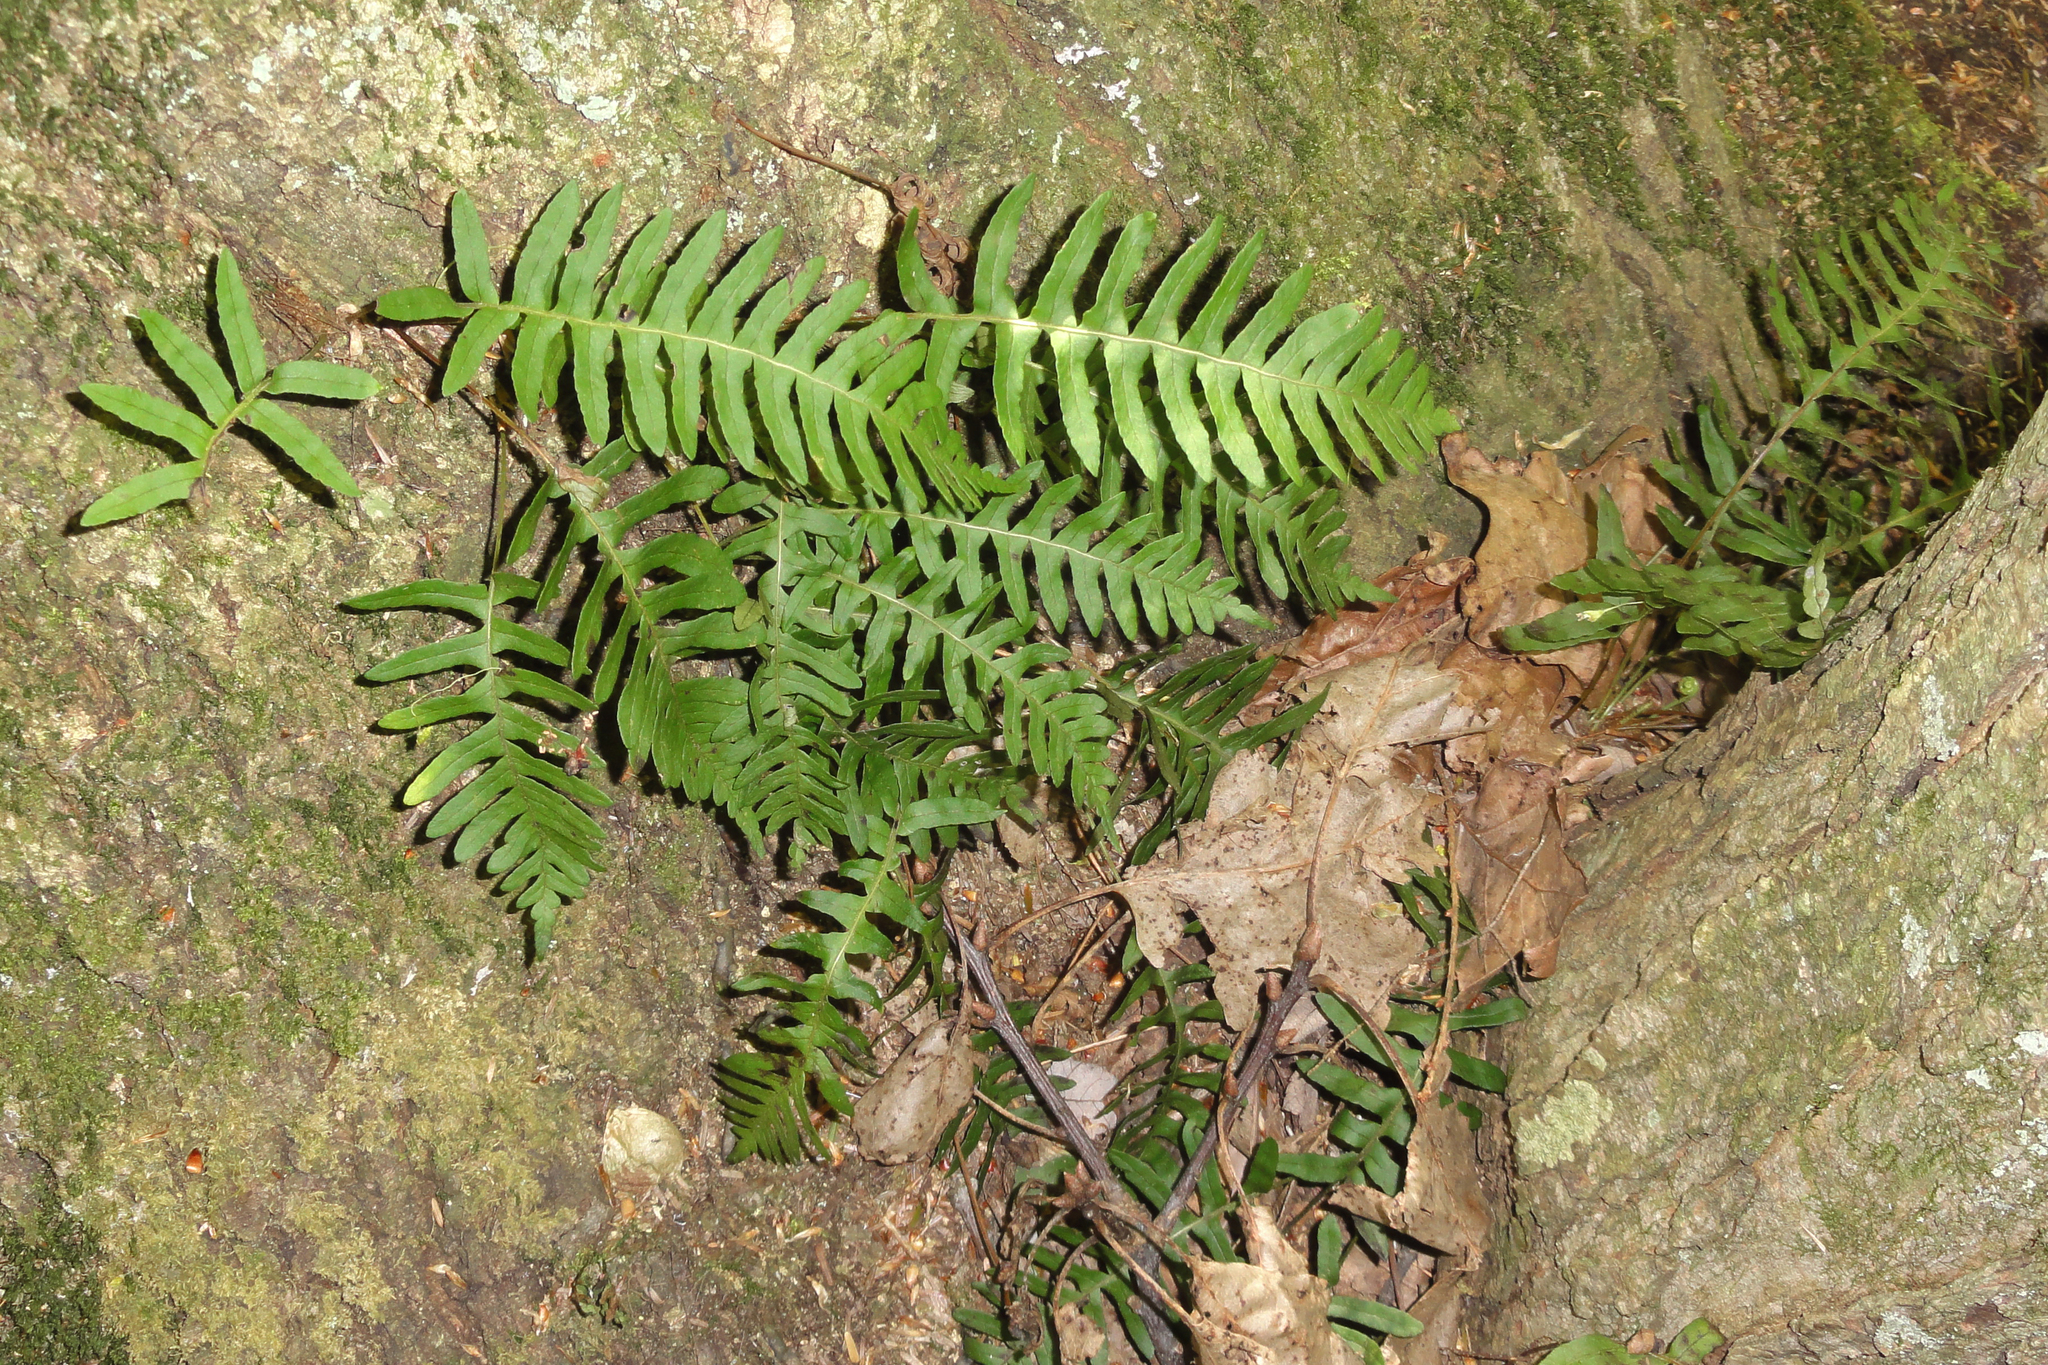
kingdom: Plantae
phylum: Tracheophyta
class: Polypodiopsida
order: Polypodiales
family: Polypodiaceae
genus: Polypodium
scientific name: Polypodium virginianum
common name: American wall fern
